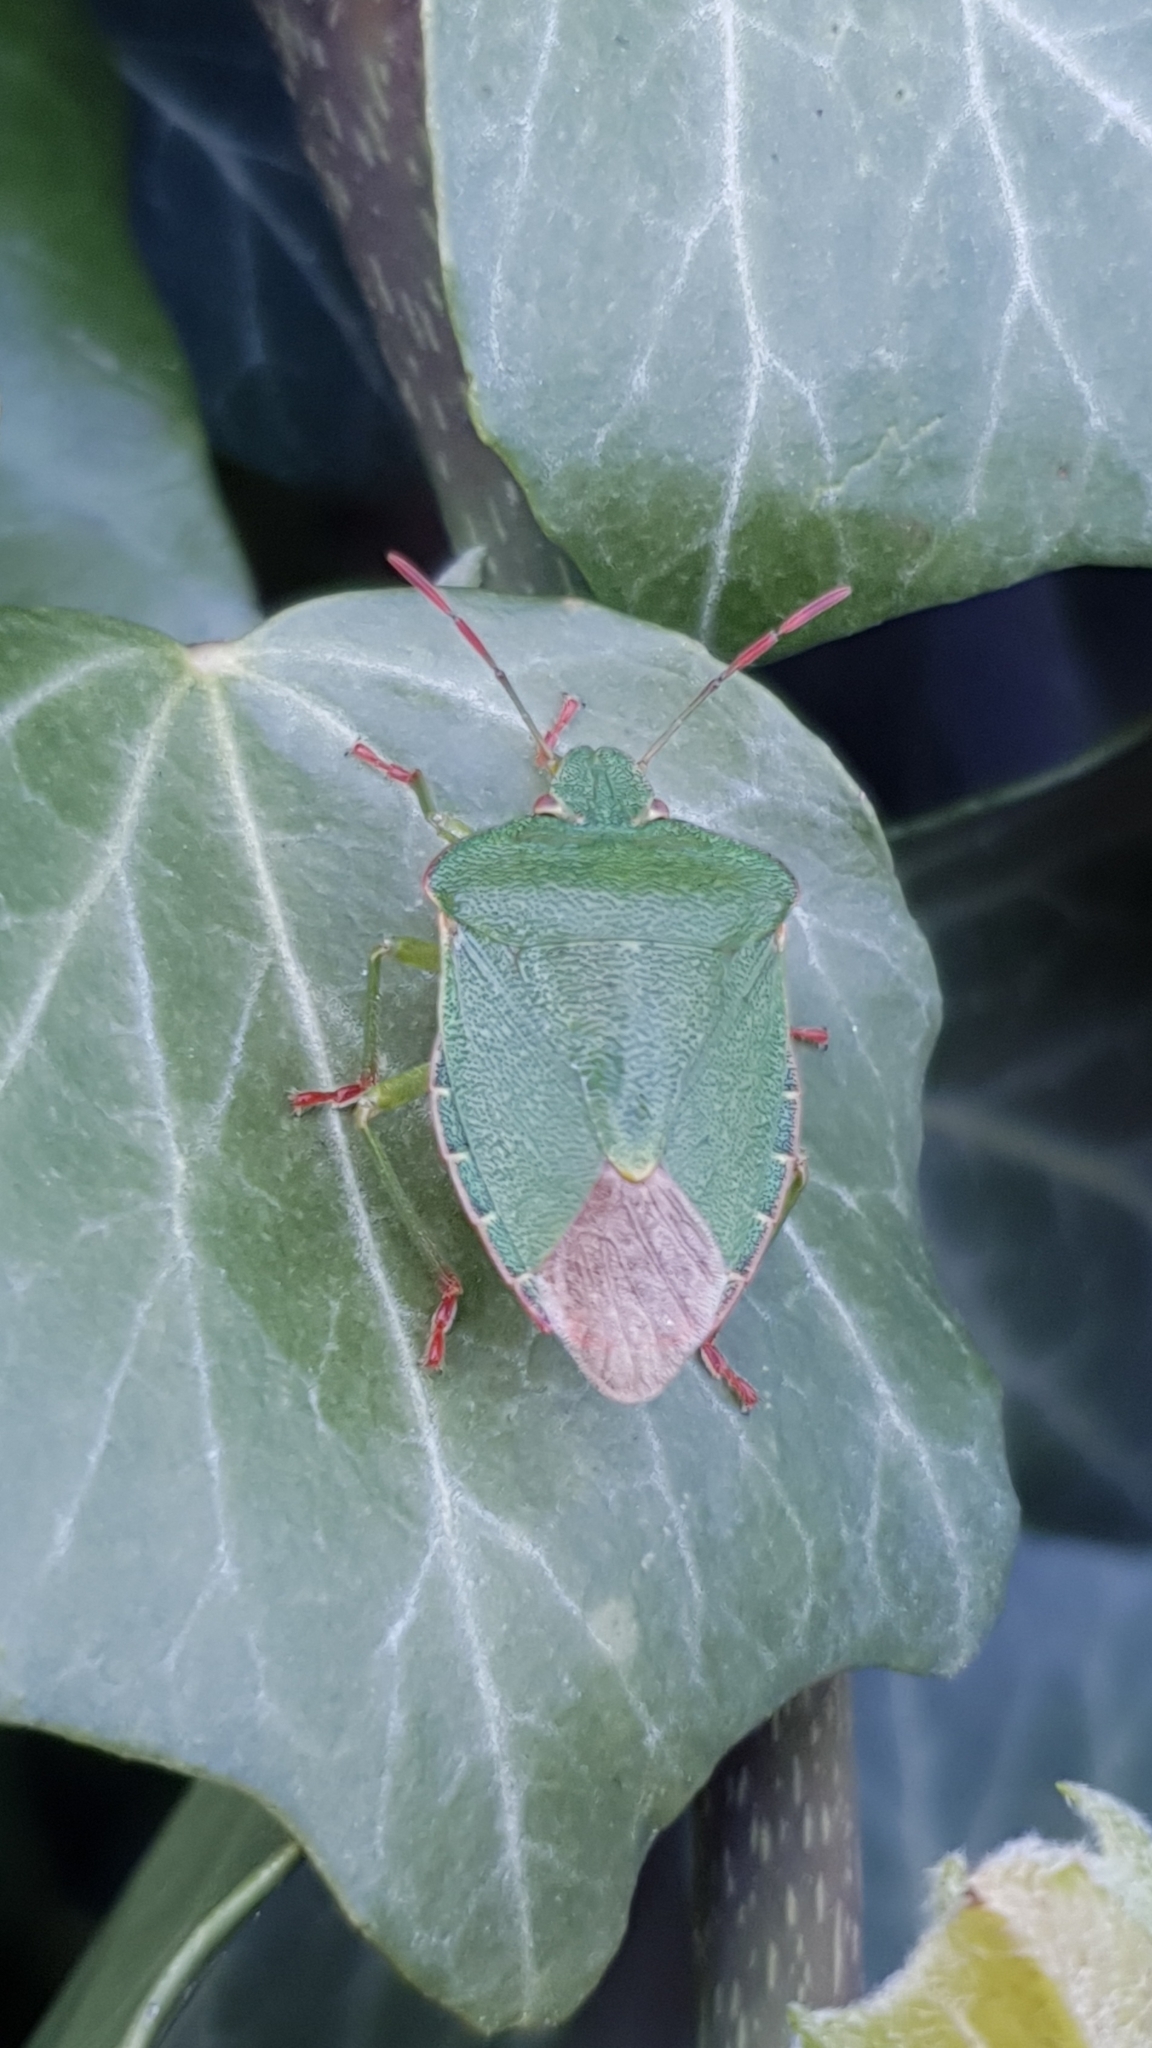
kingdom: Animalia
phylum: Arthropoda
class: Insecta
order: Hemiptera
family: Pentatomidae
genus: Palomena
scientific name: Palomena prasina
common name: Green shieldbug
